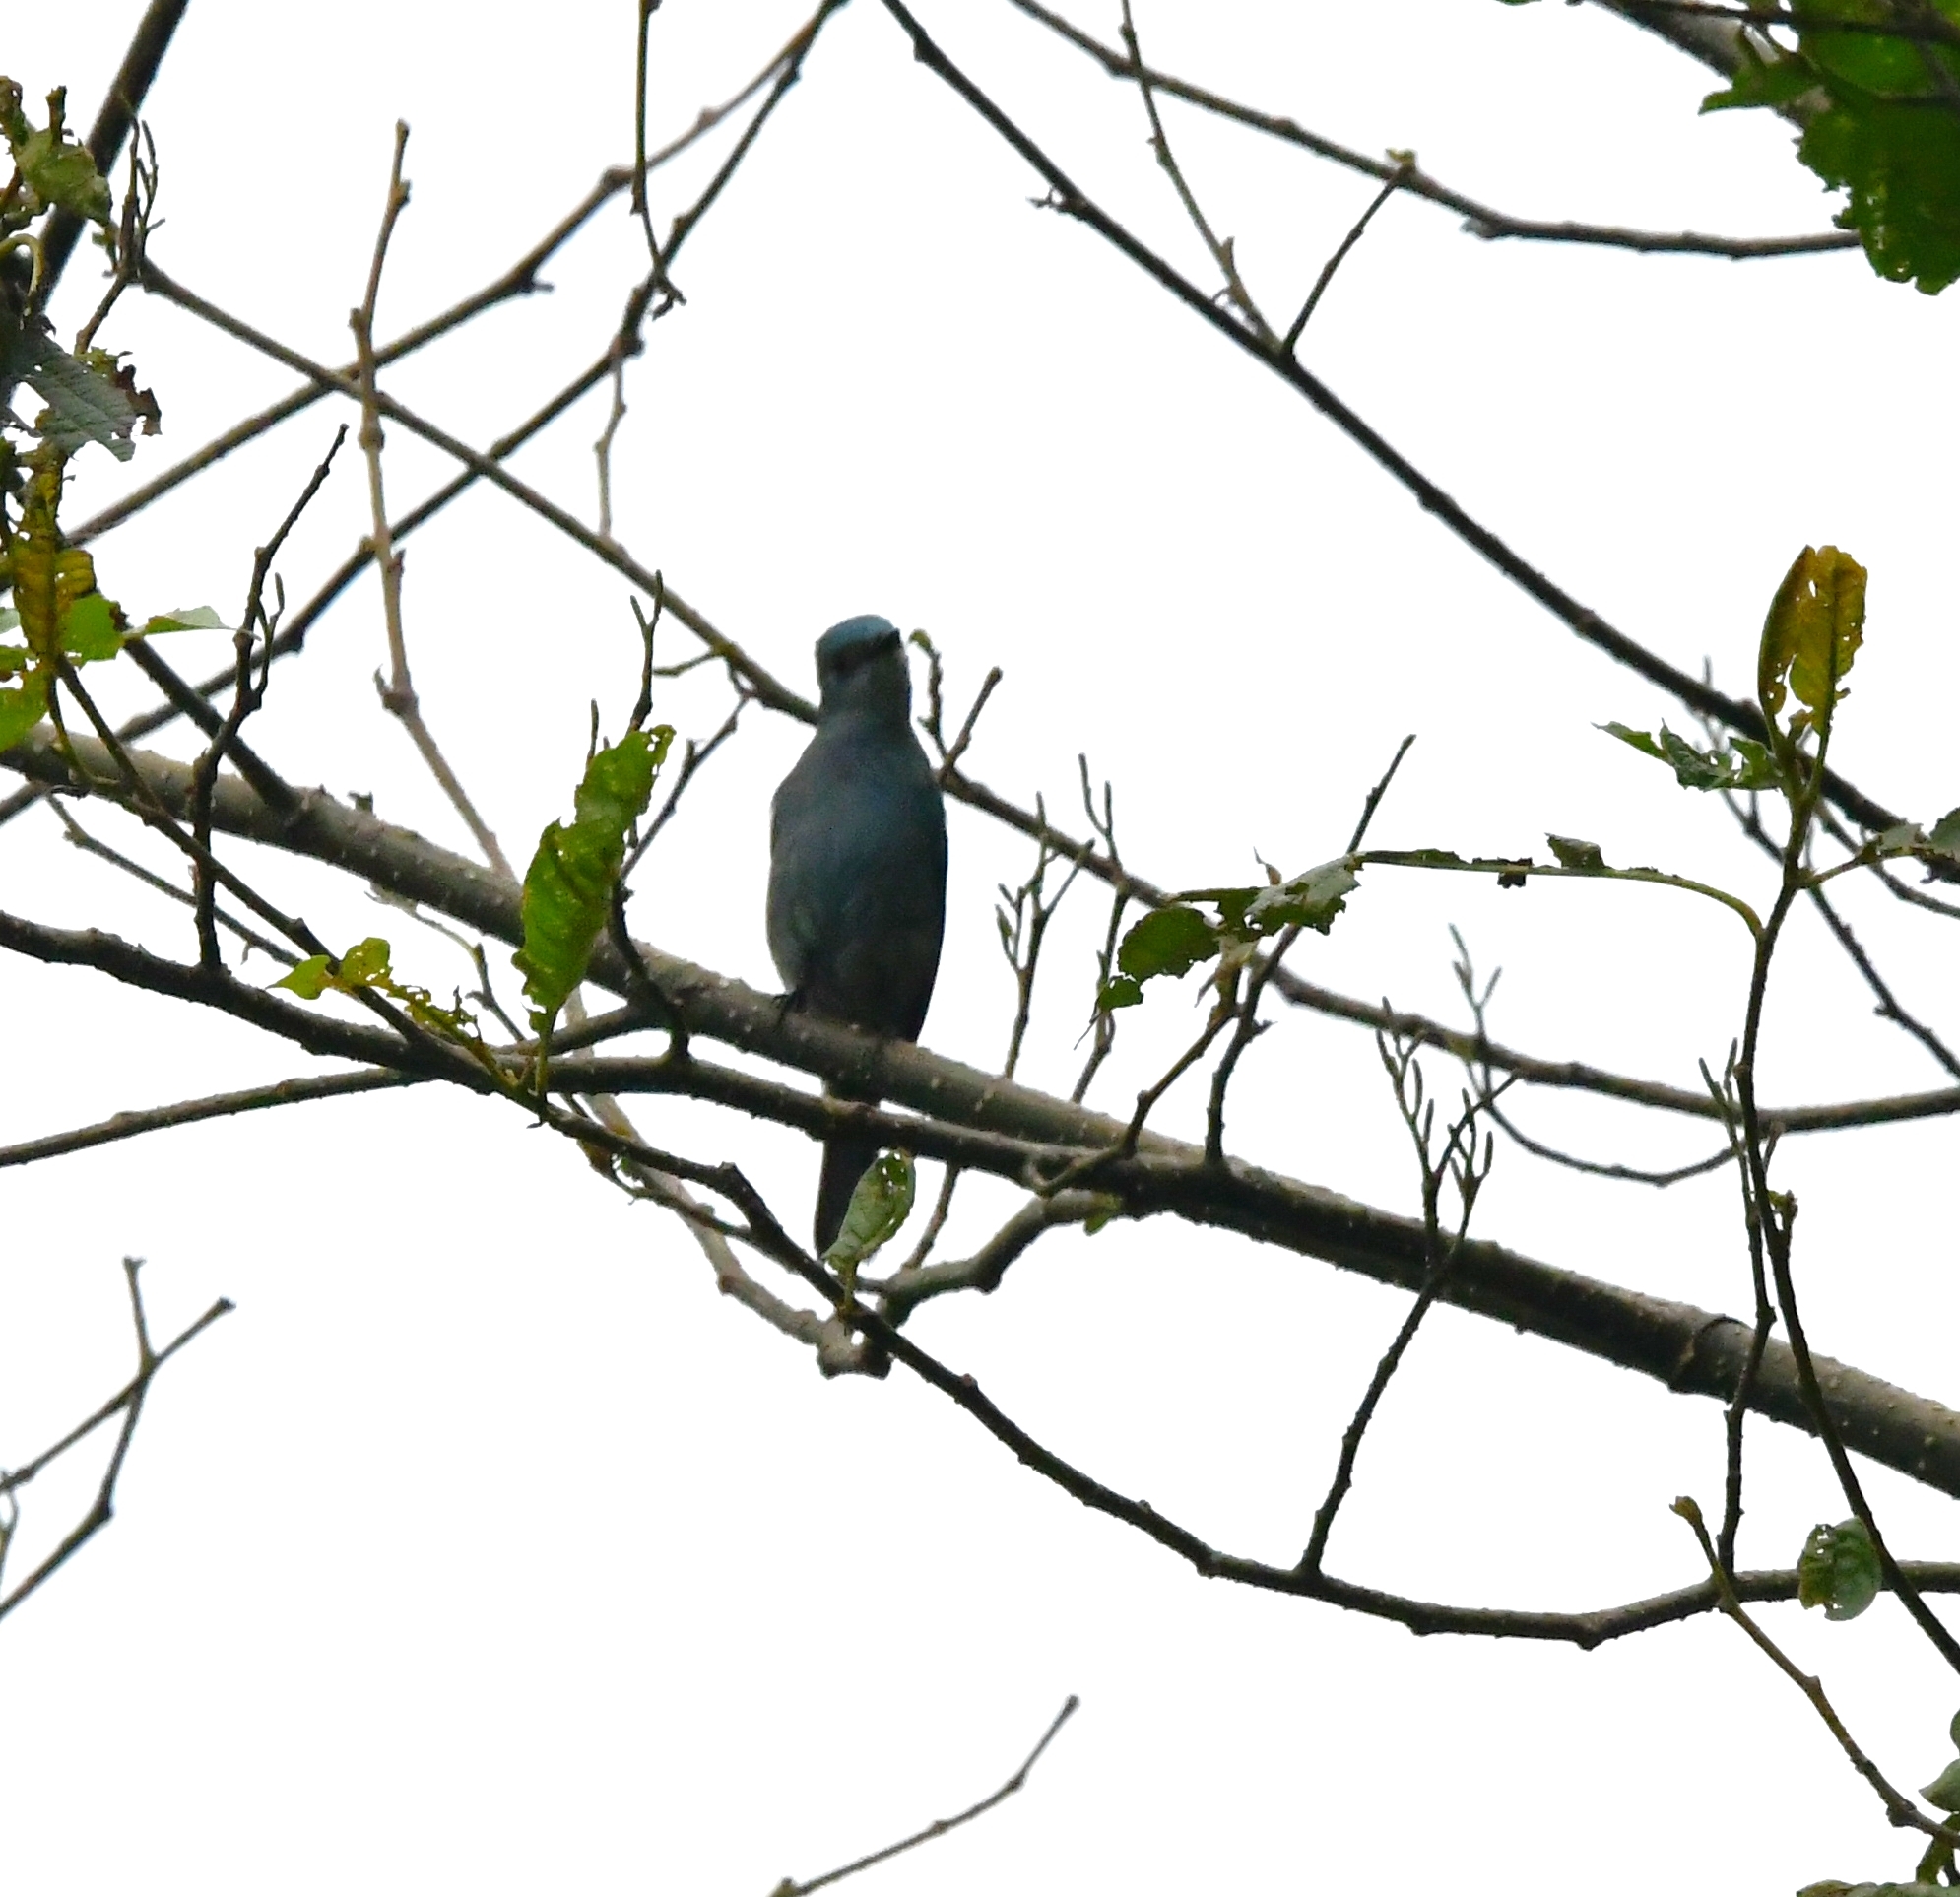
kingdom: Animalia
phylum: Chordata
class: Aves
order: Passeriformes
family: Muscicapidae
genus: Eumyias
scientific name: Eumyias thalassinus
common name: Verditer flycatcher
